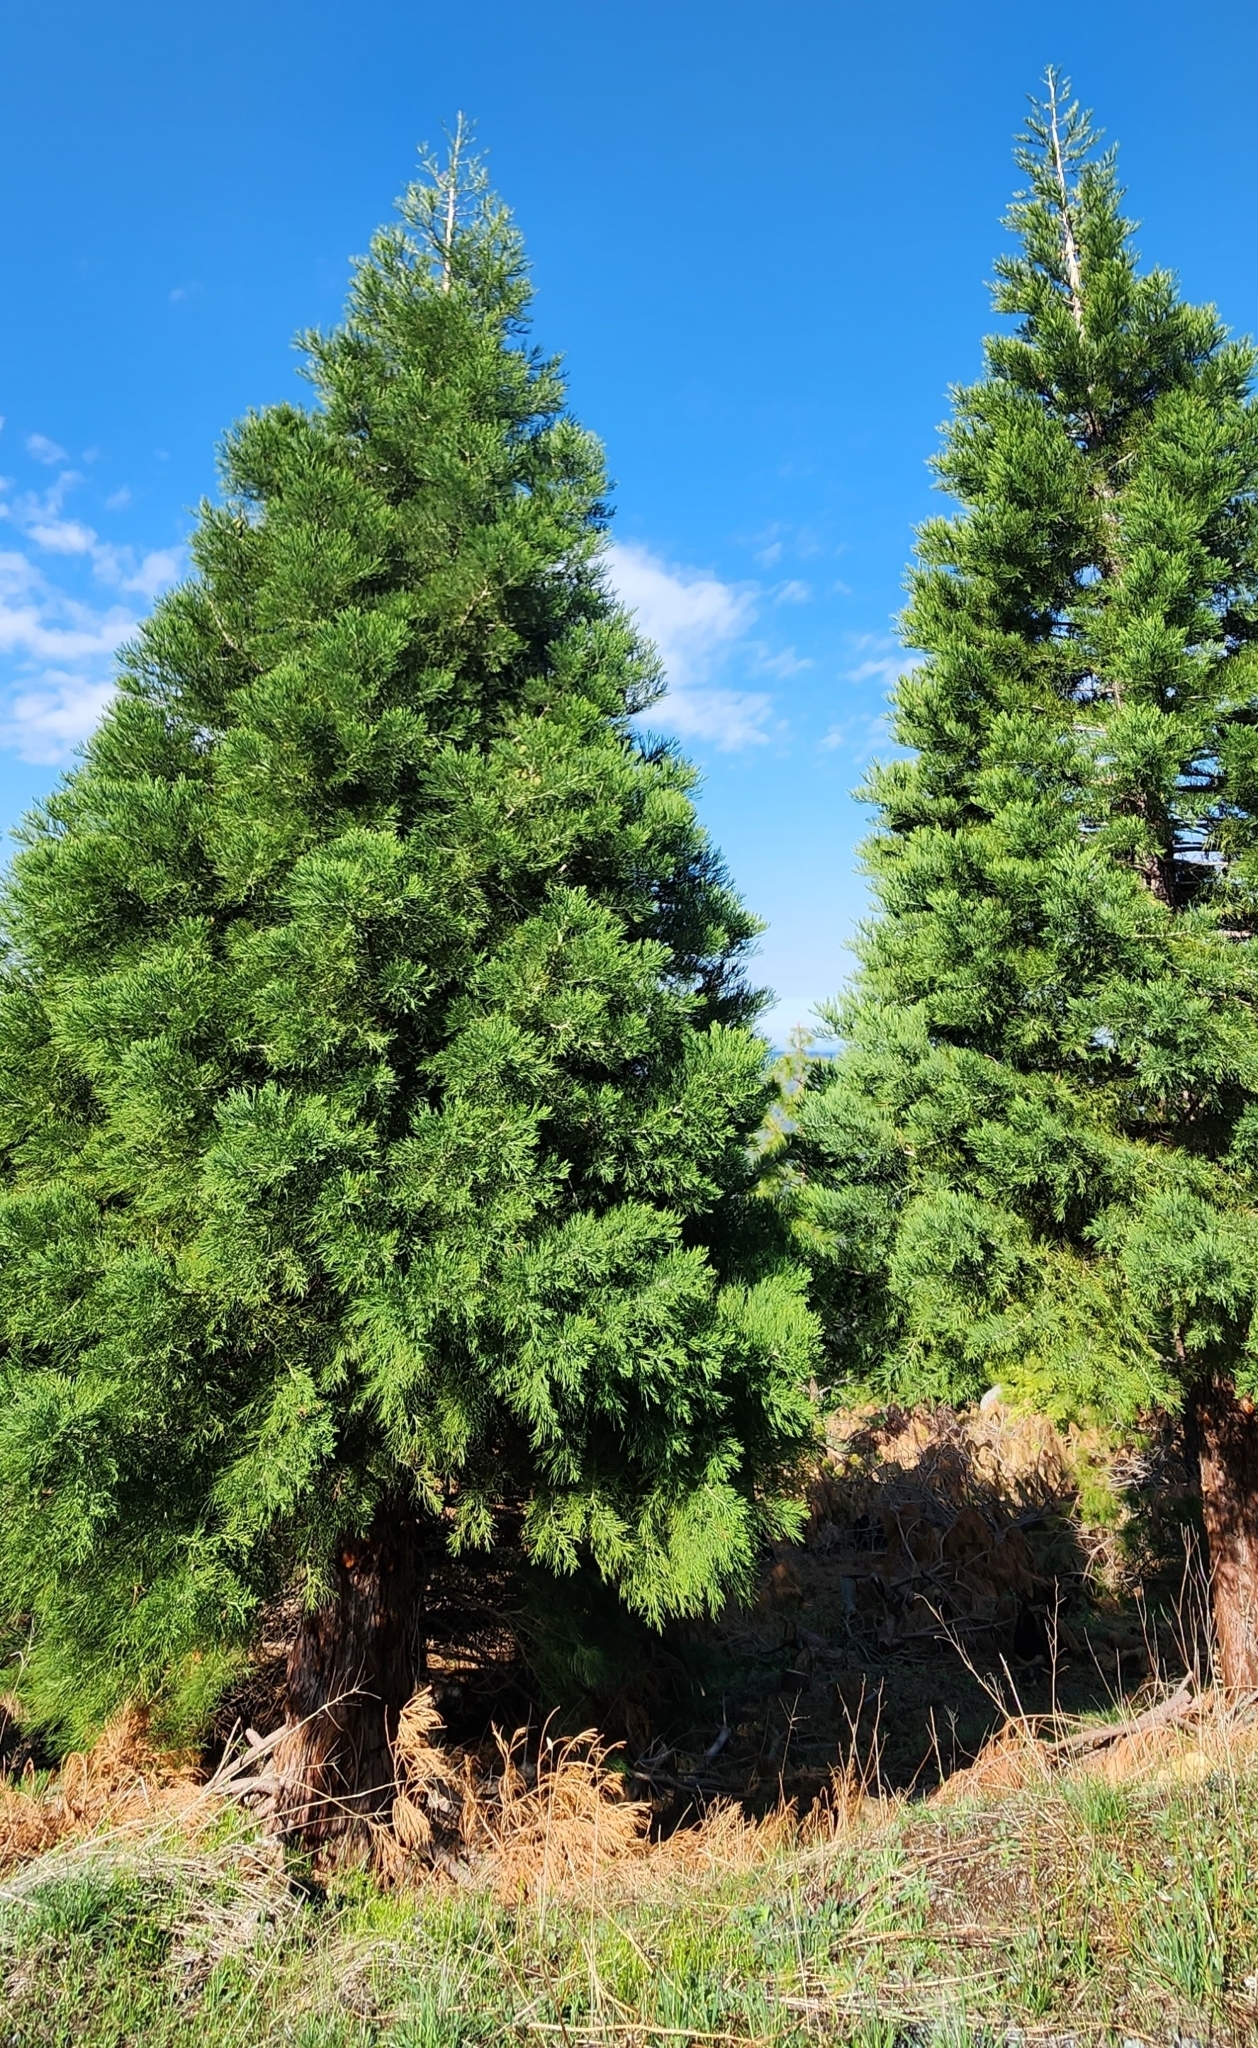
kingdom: Plantae
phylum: Tracheophyta
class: Pinopsida
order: Pinales
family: Cupressaceae
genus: Sequoiadendron
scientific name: Sequoiadendron giganteum
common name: Wellingtonia
